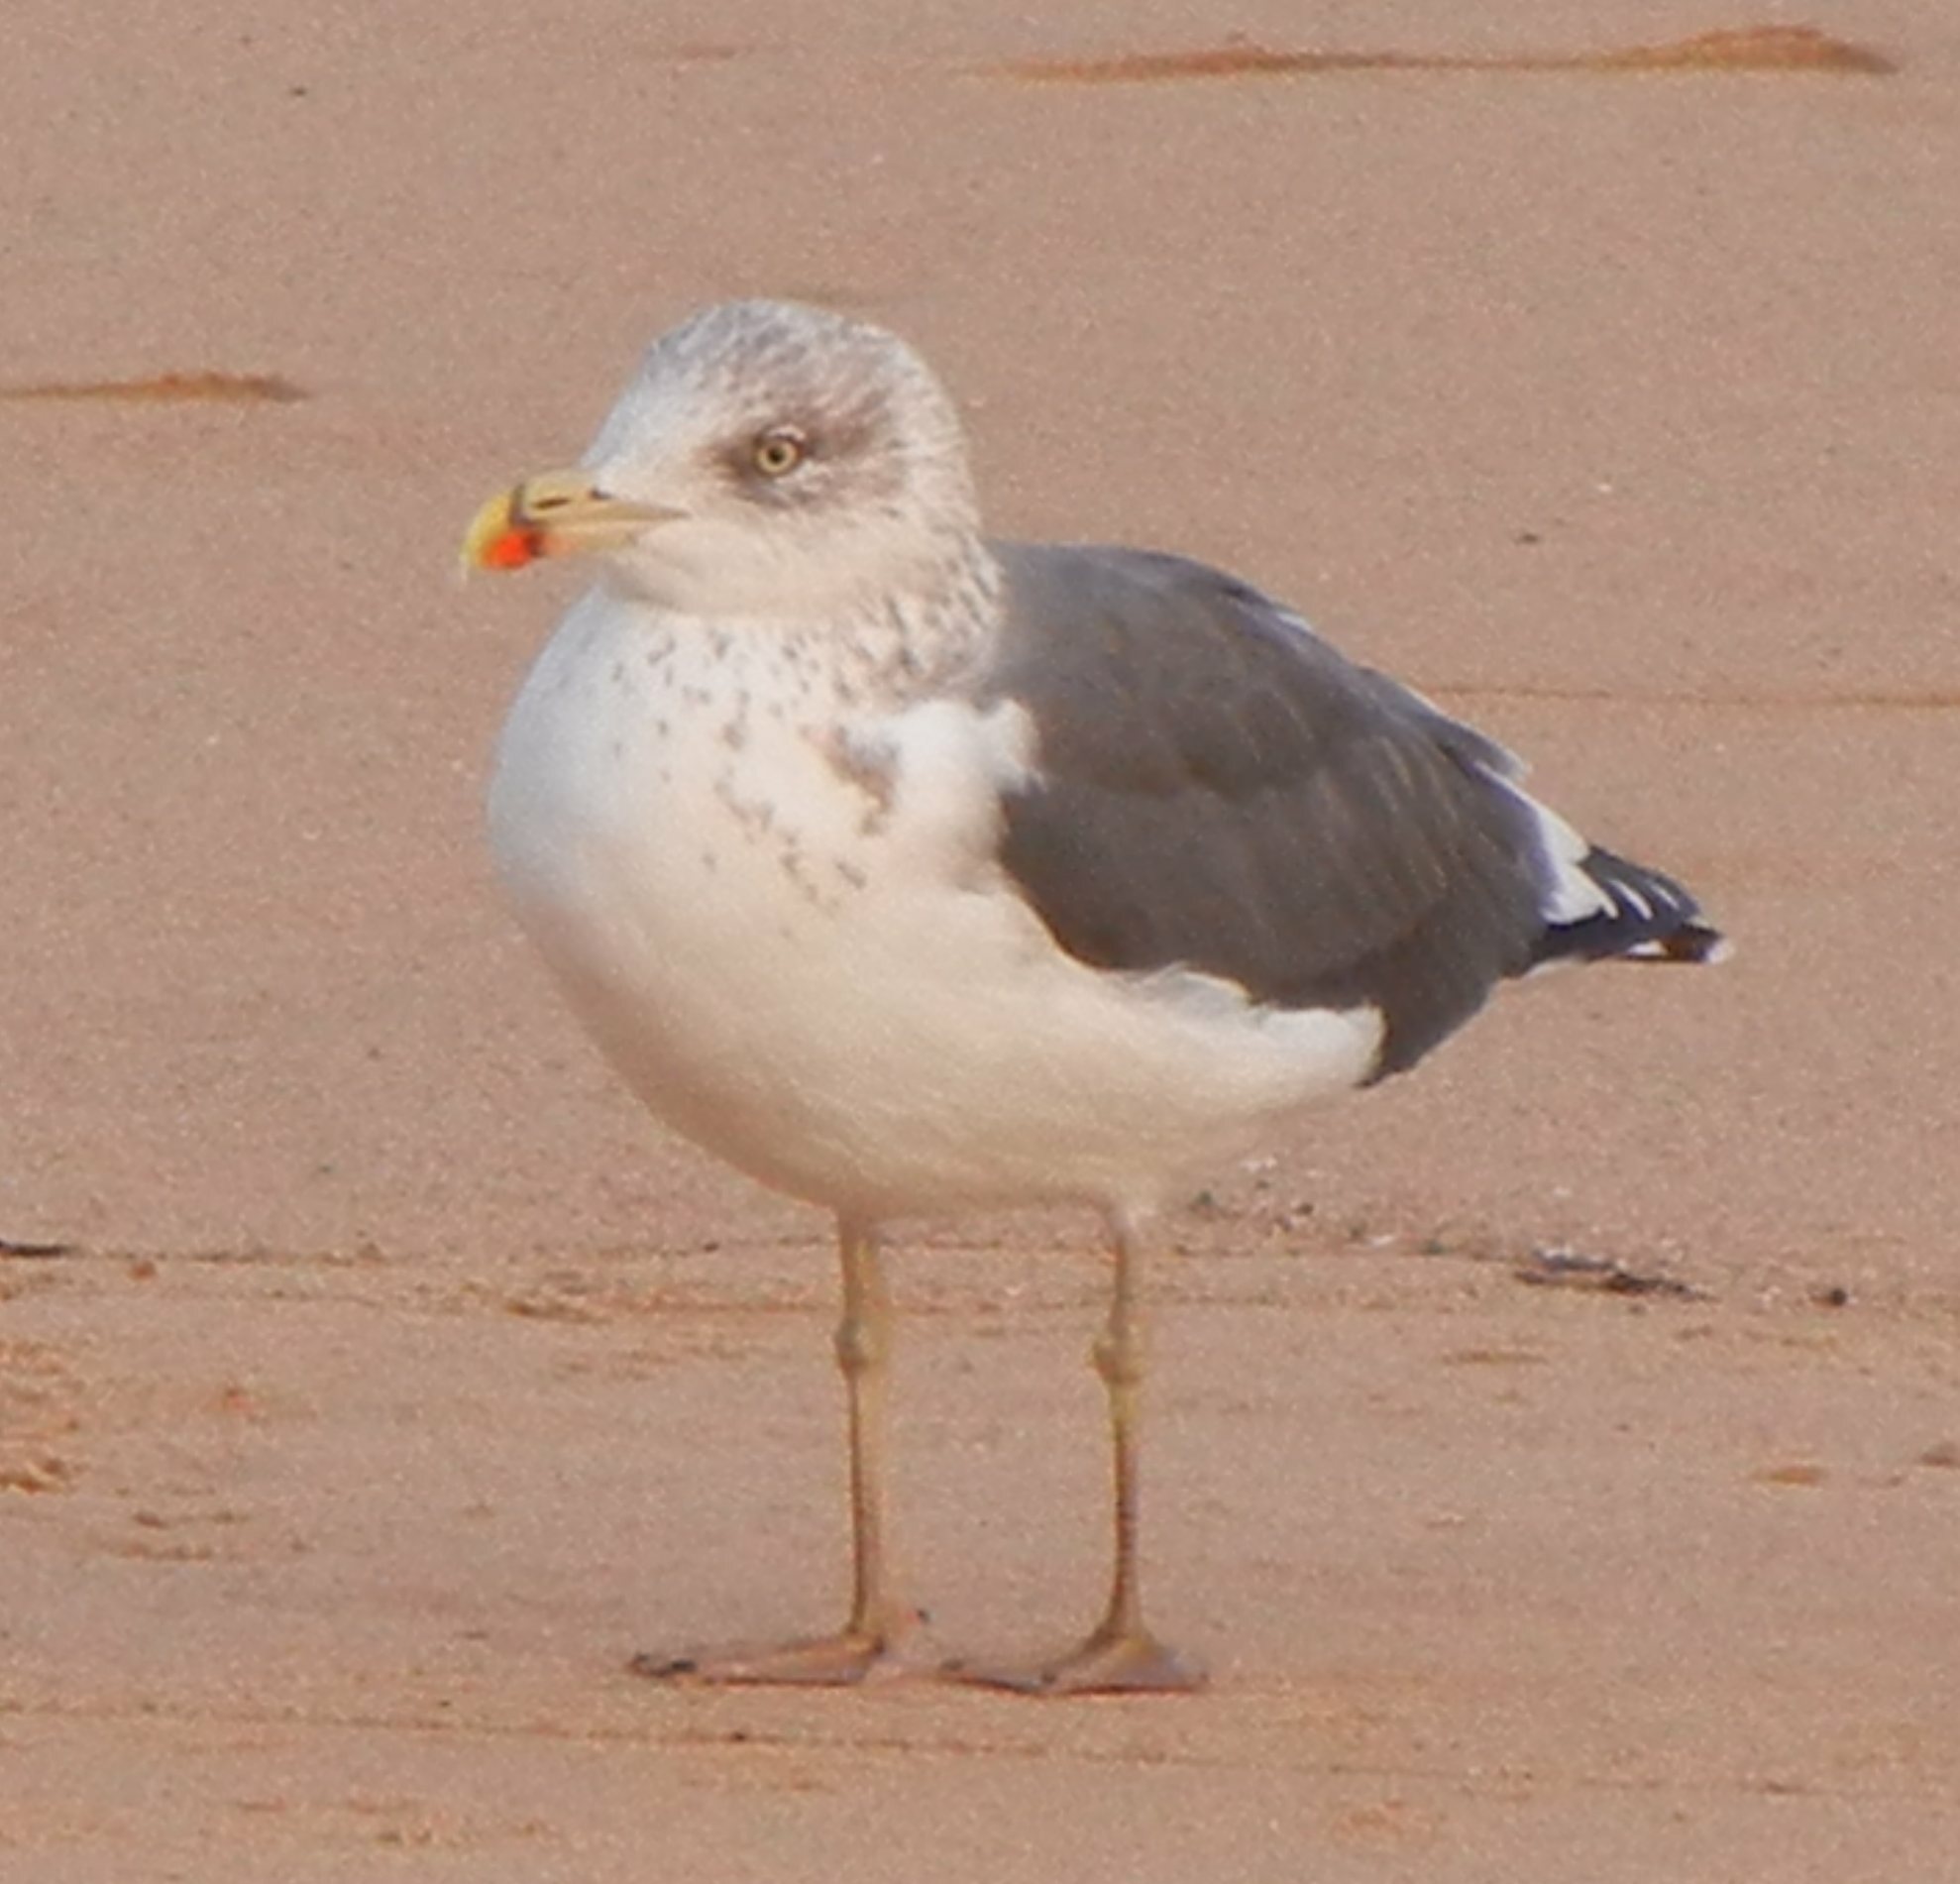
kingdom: Animalia
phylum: Chordata
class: Aves
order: Charadriiformes
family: Laridae
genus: Larus
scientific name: Larus fuscus
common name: Lesser black-backed gull
